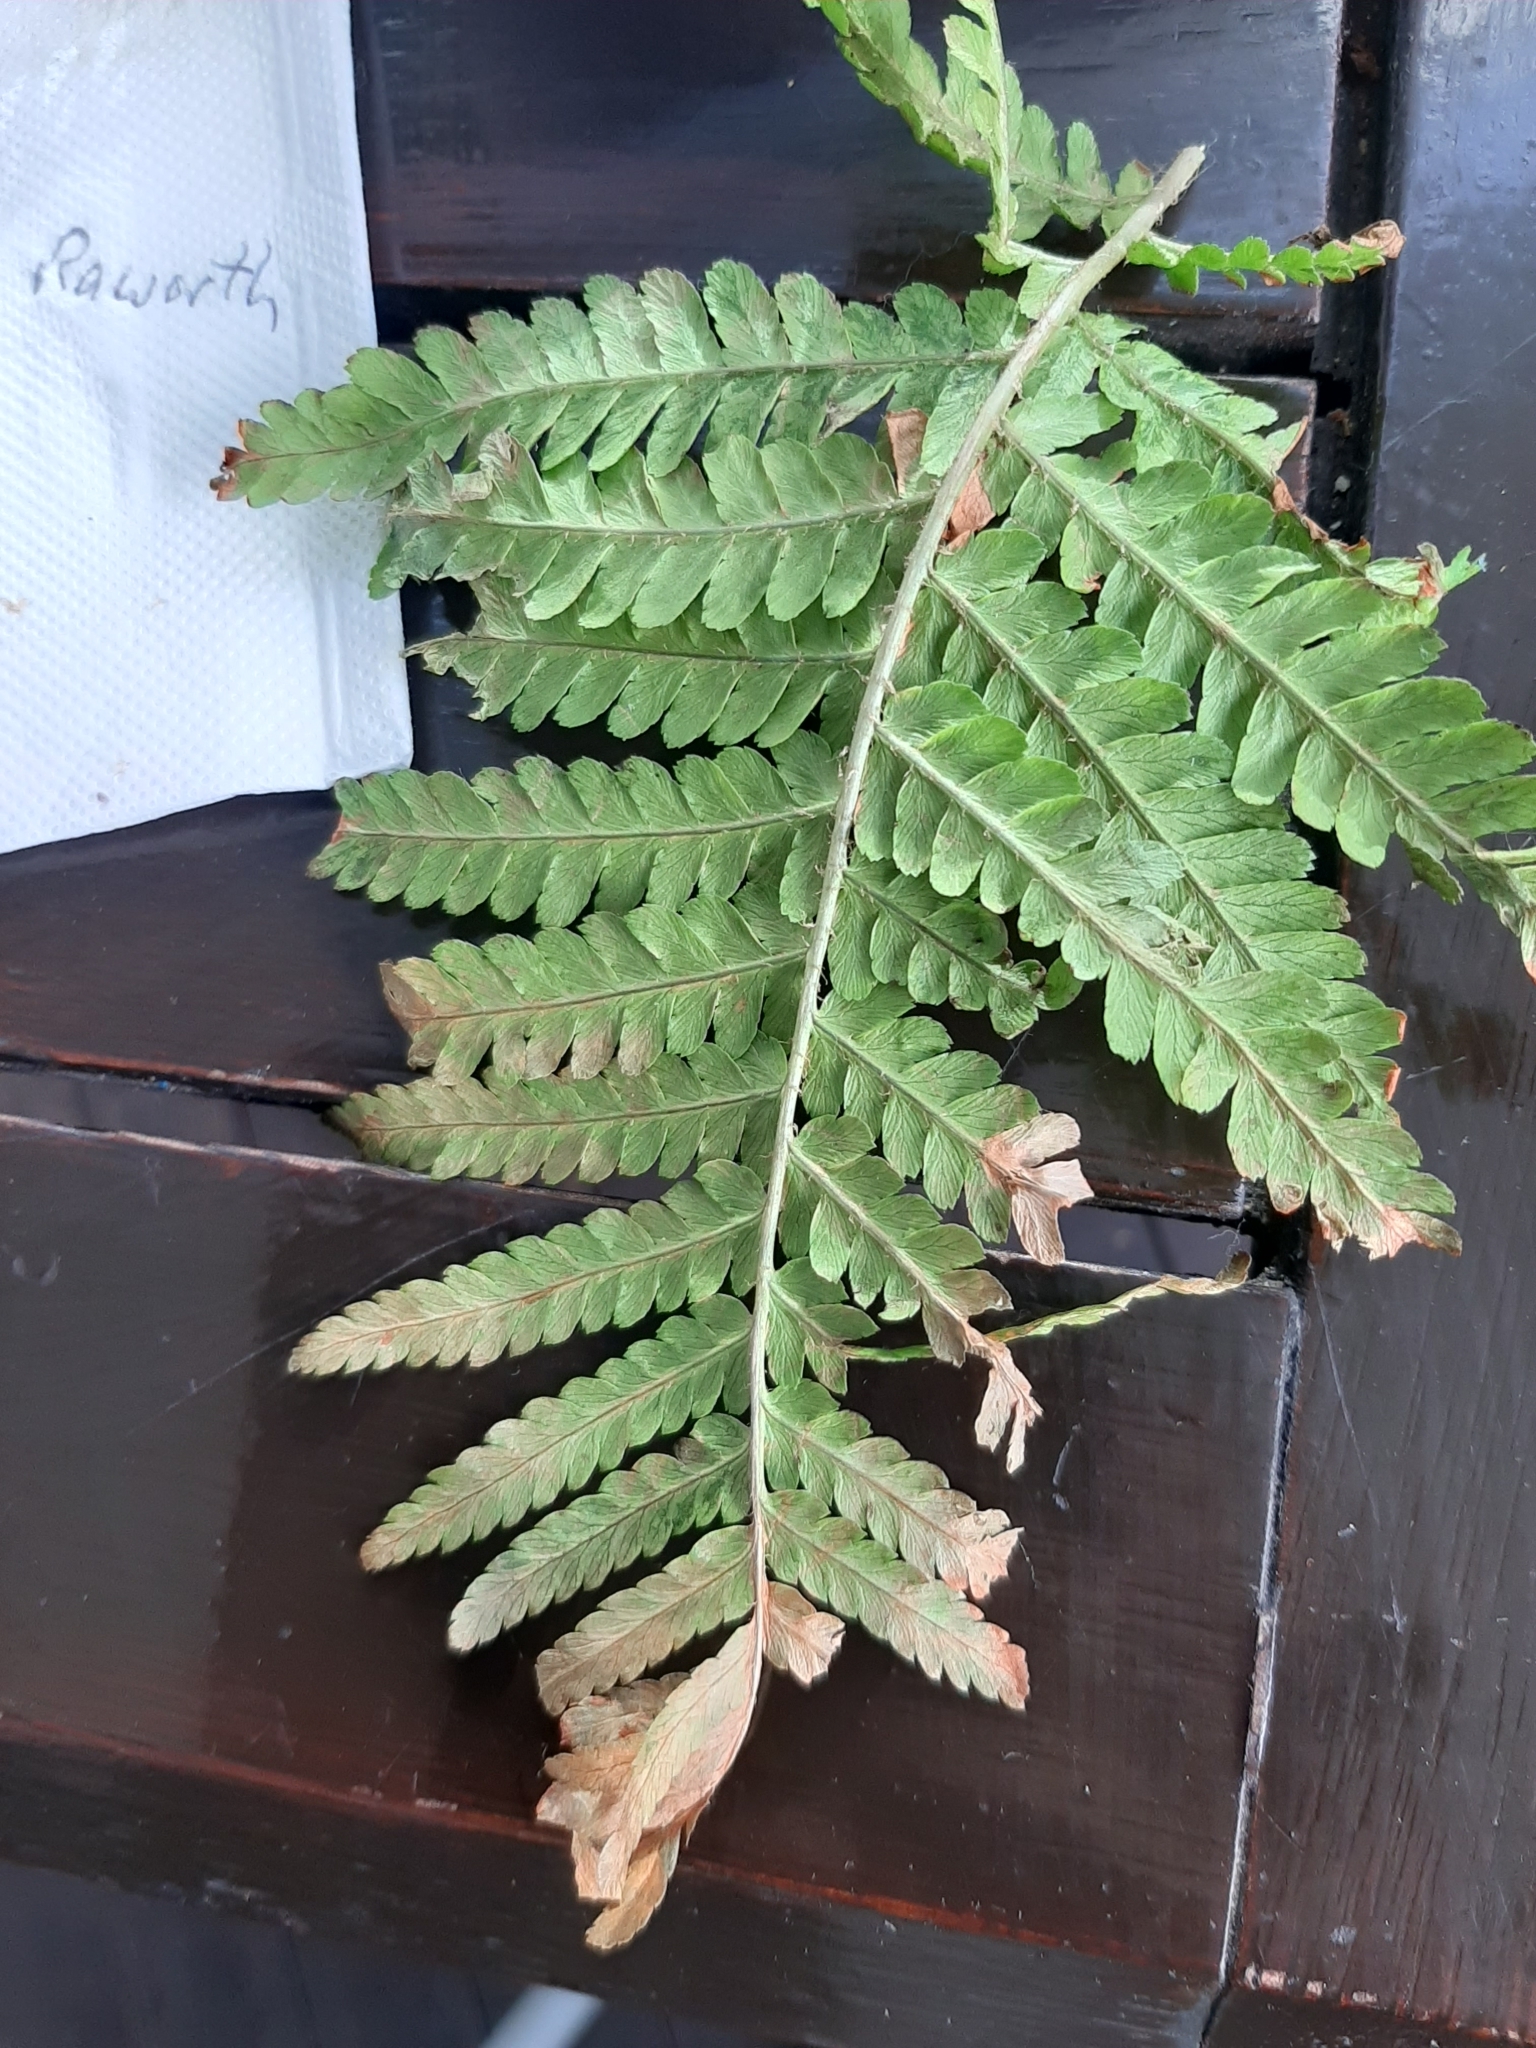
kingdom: Plantae
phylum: Tracheophyta
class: Polypodiopsida
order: Polypodiales
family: Dryopteridaceae
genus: Dryopteris
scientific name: Dryopteris filix-mas
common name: Male fern
